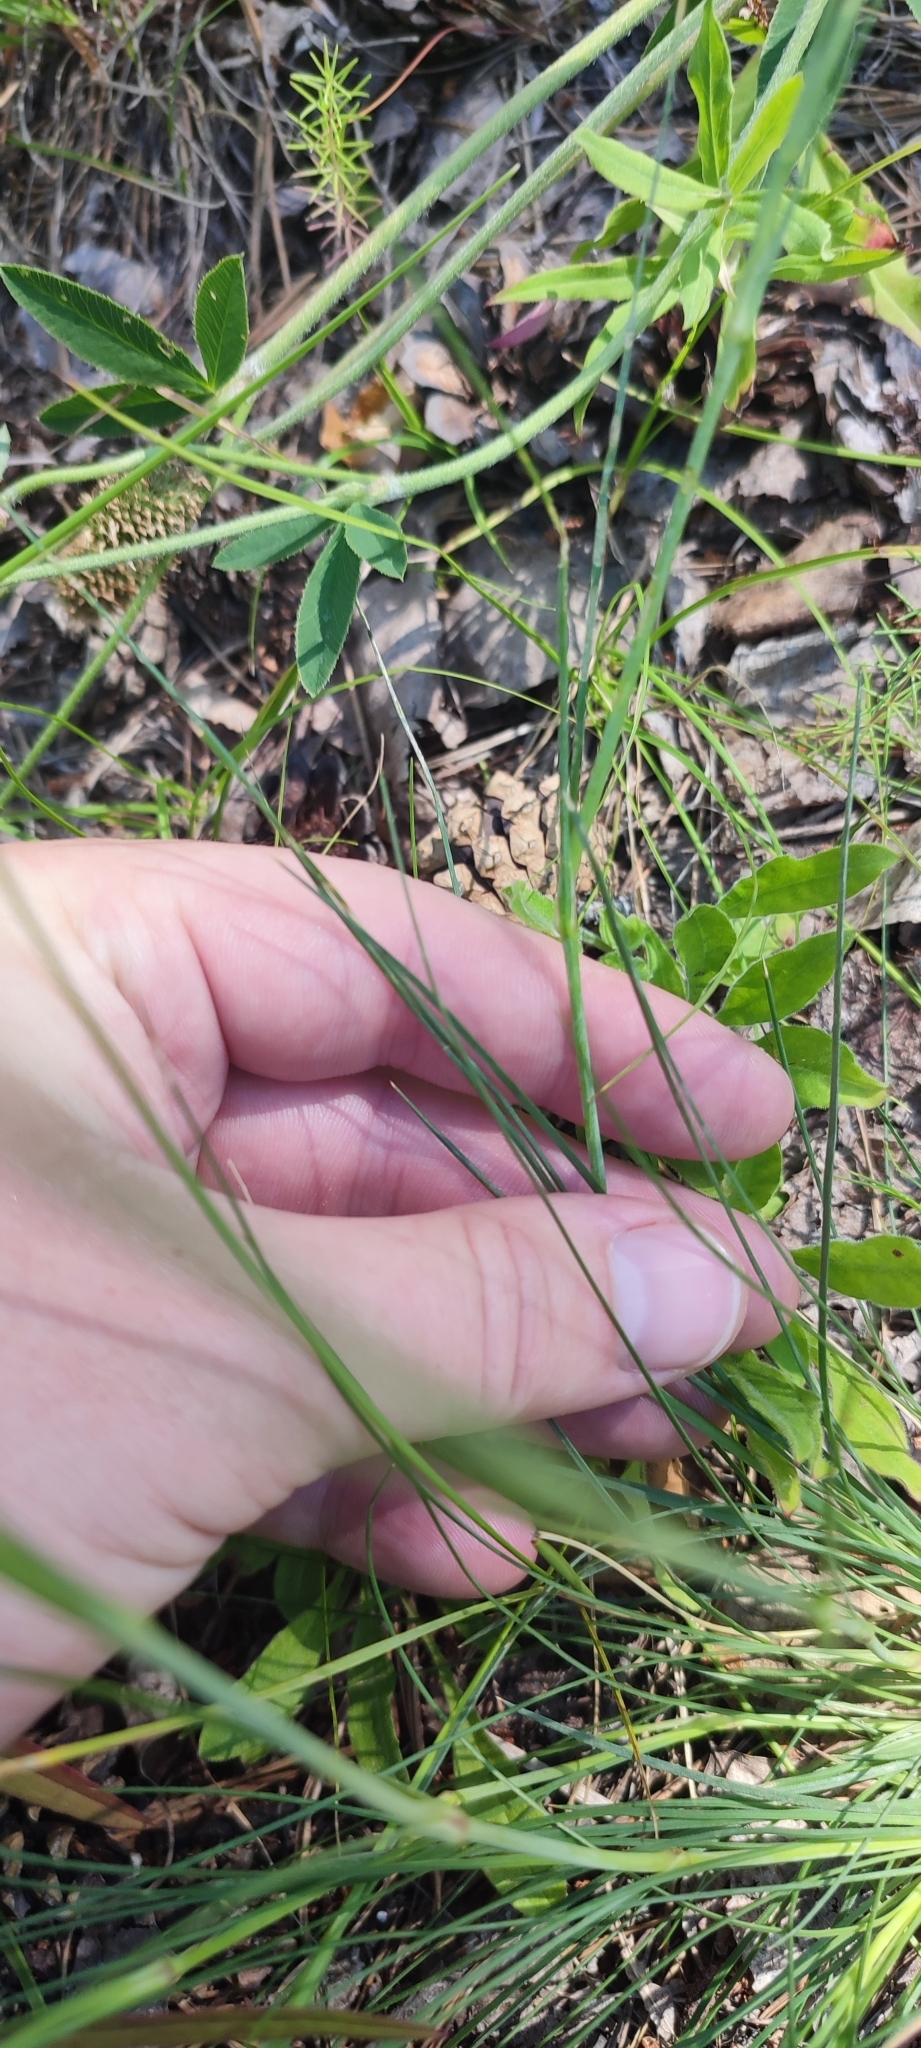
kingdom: Plantae
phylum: Tracheophyta
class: Magnoliopsida
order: Caryophyllales
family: Caryophyllaceae
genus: Eremogone
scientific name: Eremogone saxatilis
